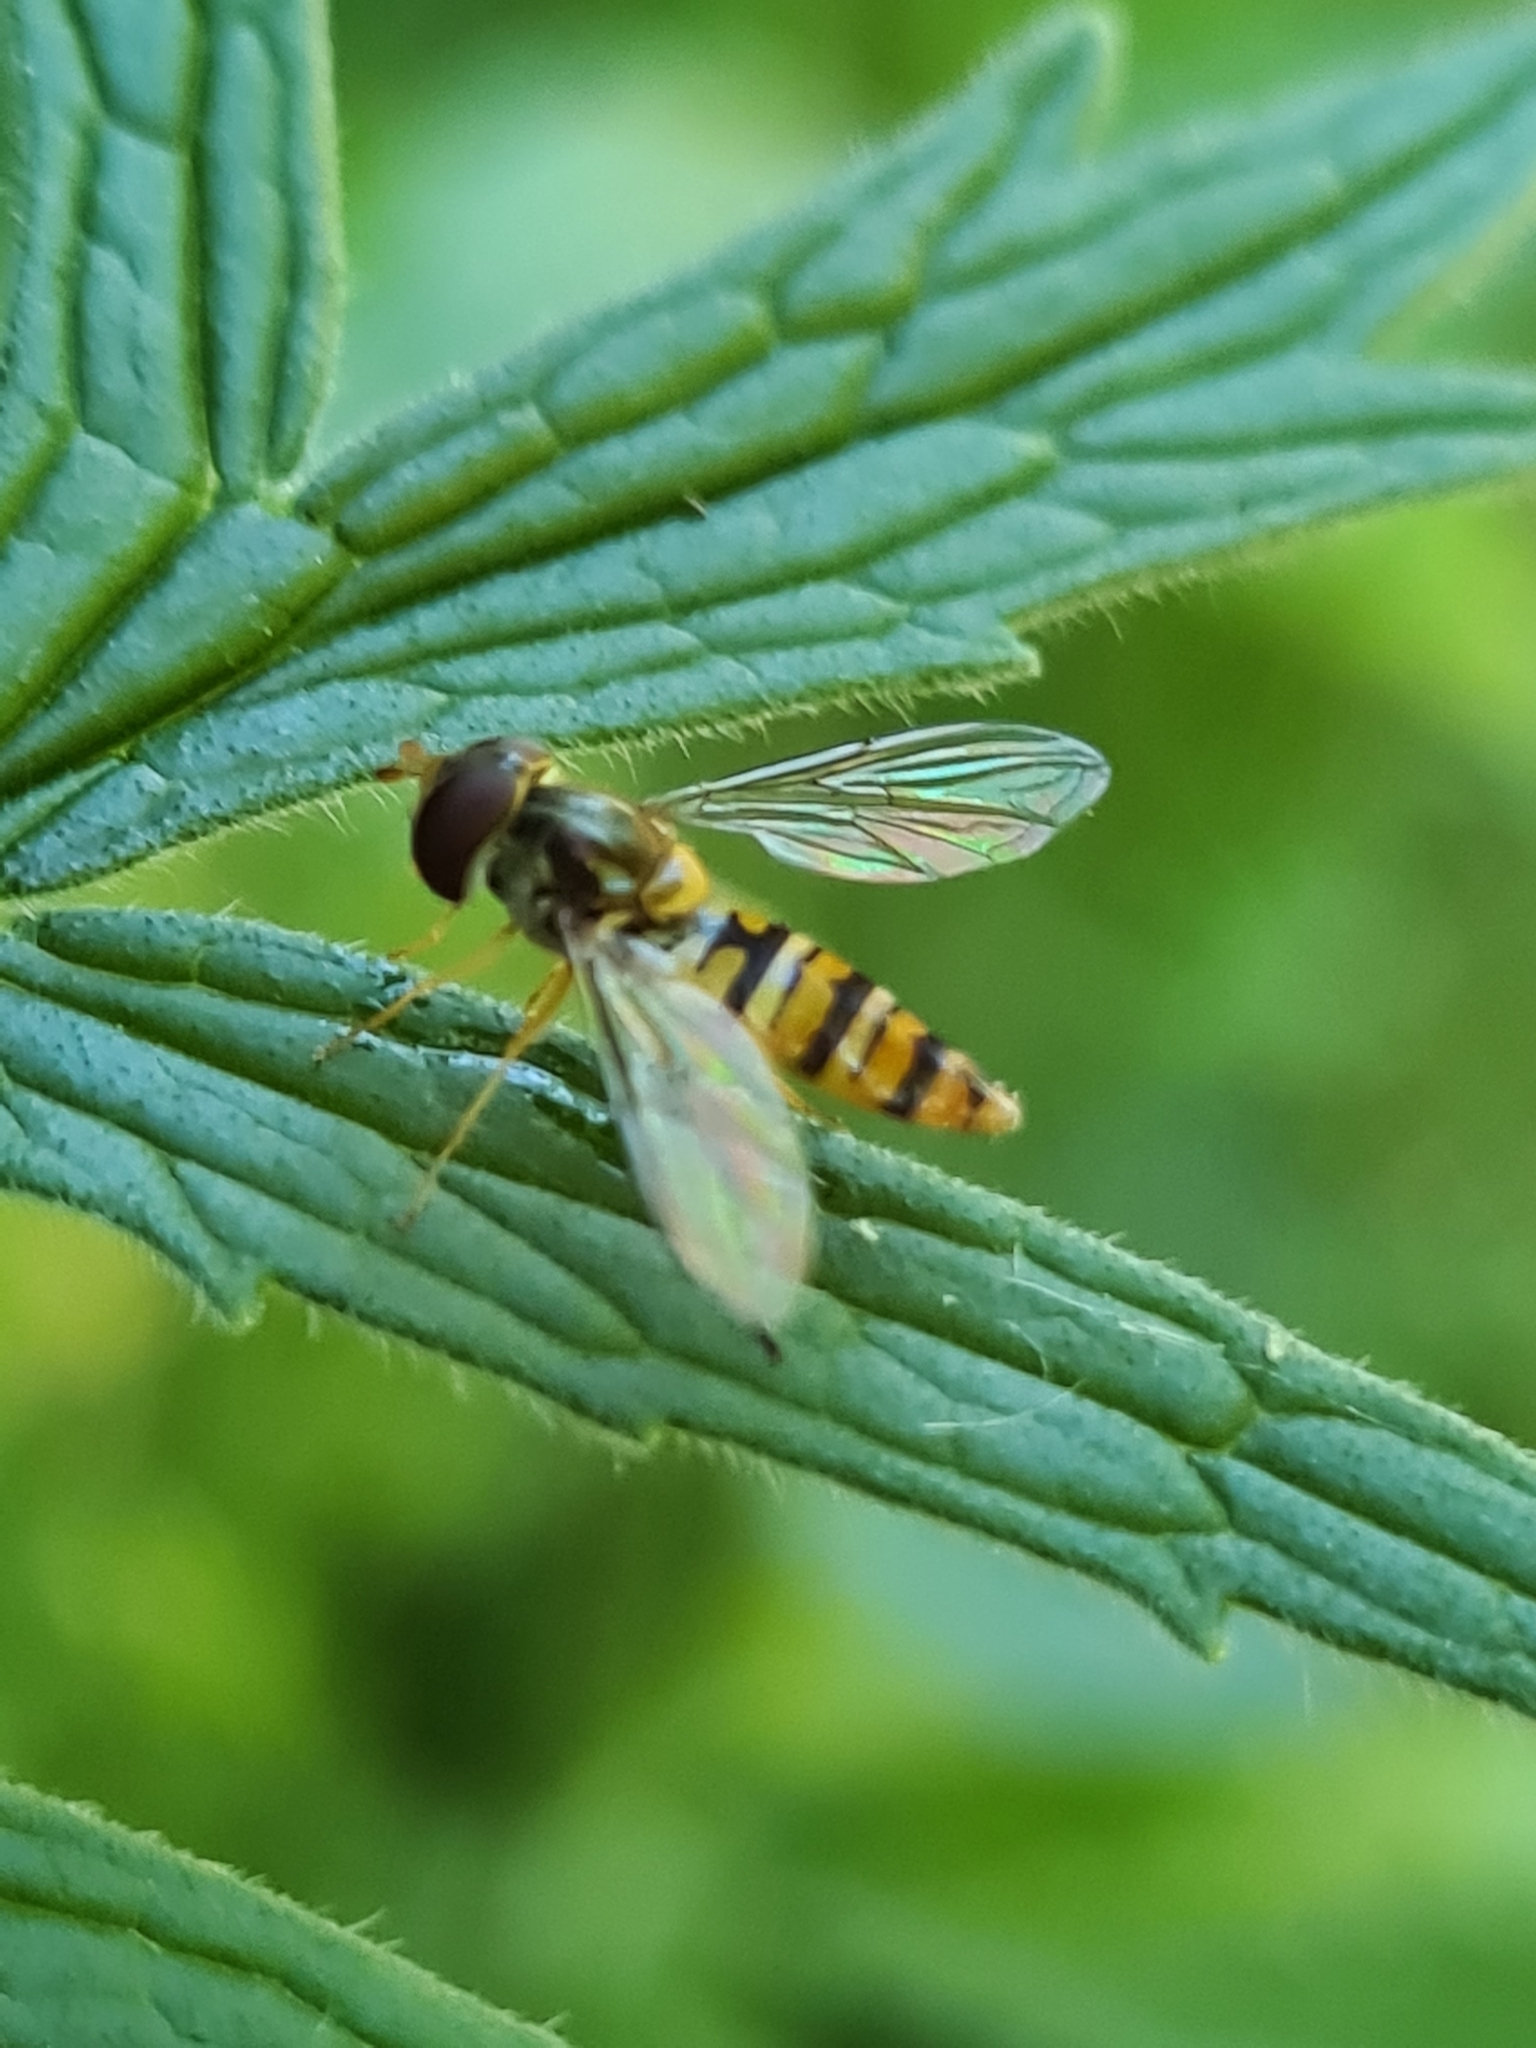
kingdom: Animalia
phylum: Arthropoda
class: Insecta
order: Diptera
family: Syrphidae
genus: Episyrphus
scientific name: Episyrphus balteatus
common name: Marmalade hoverfly
